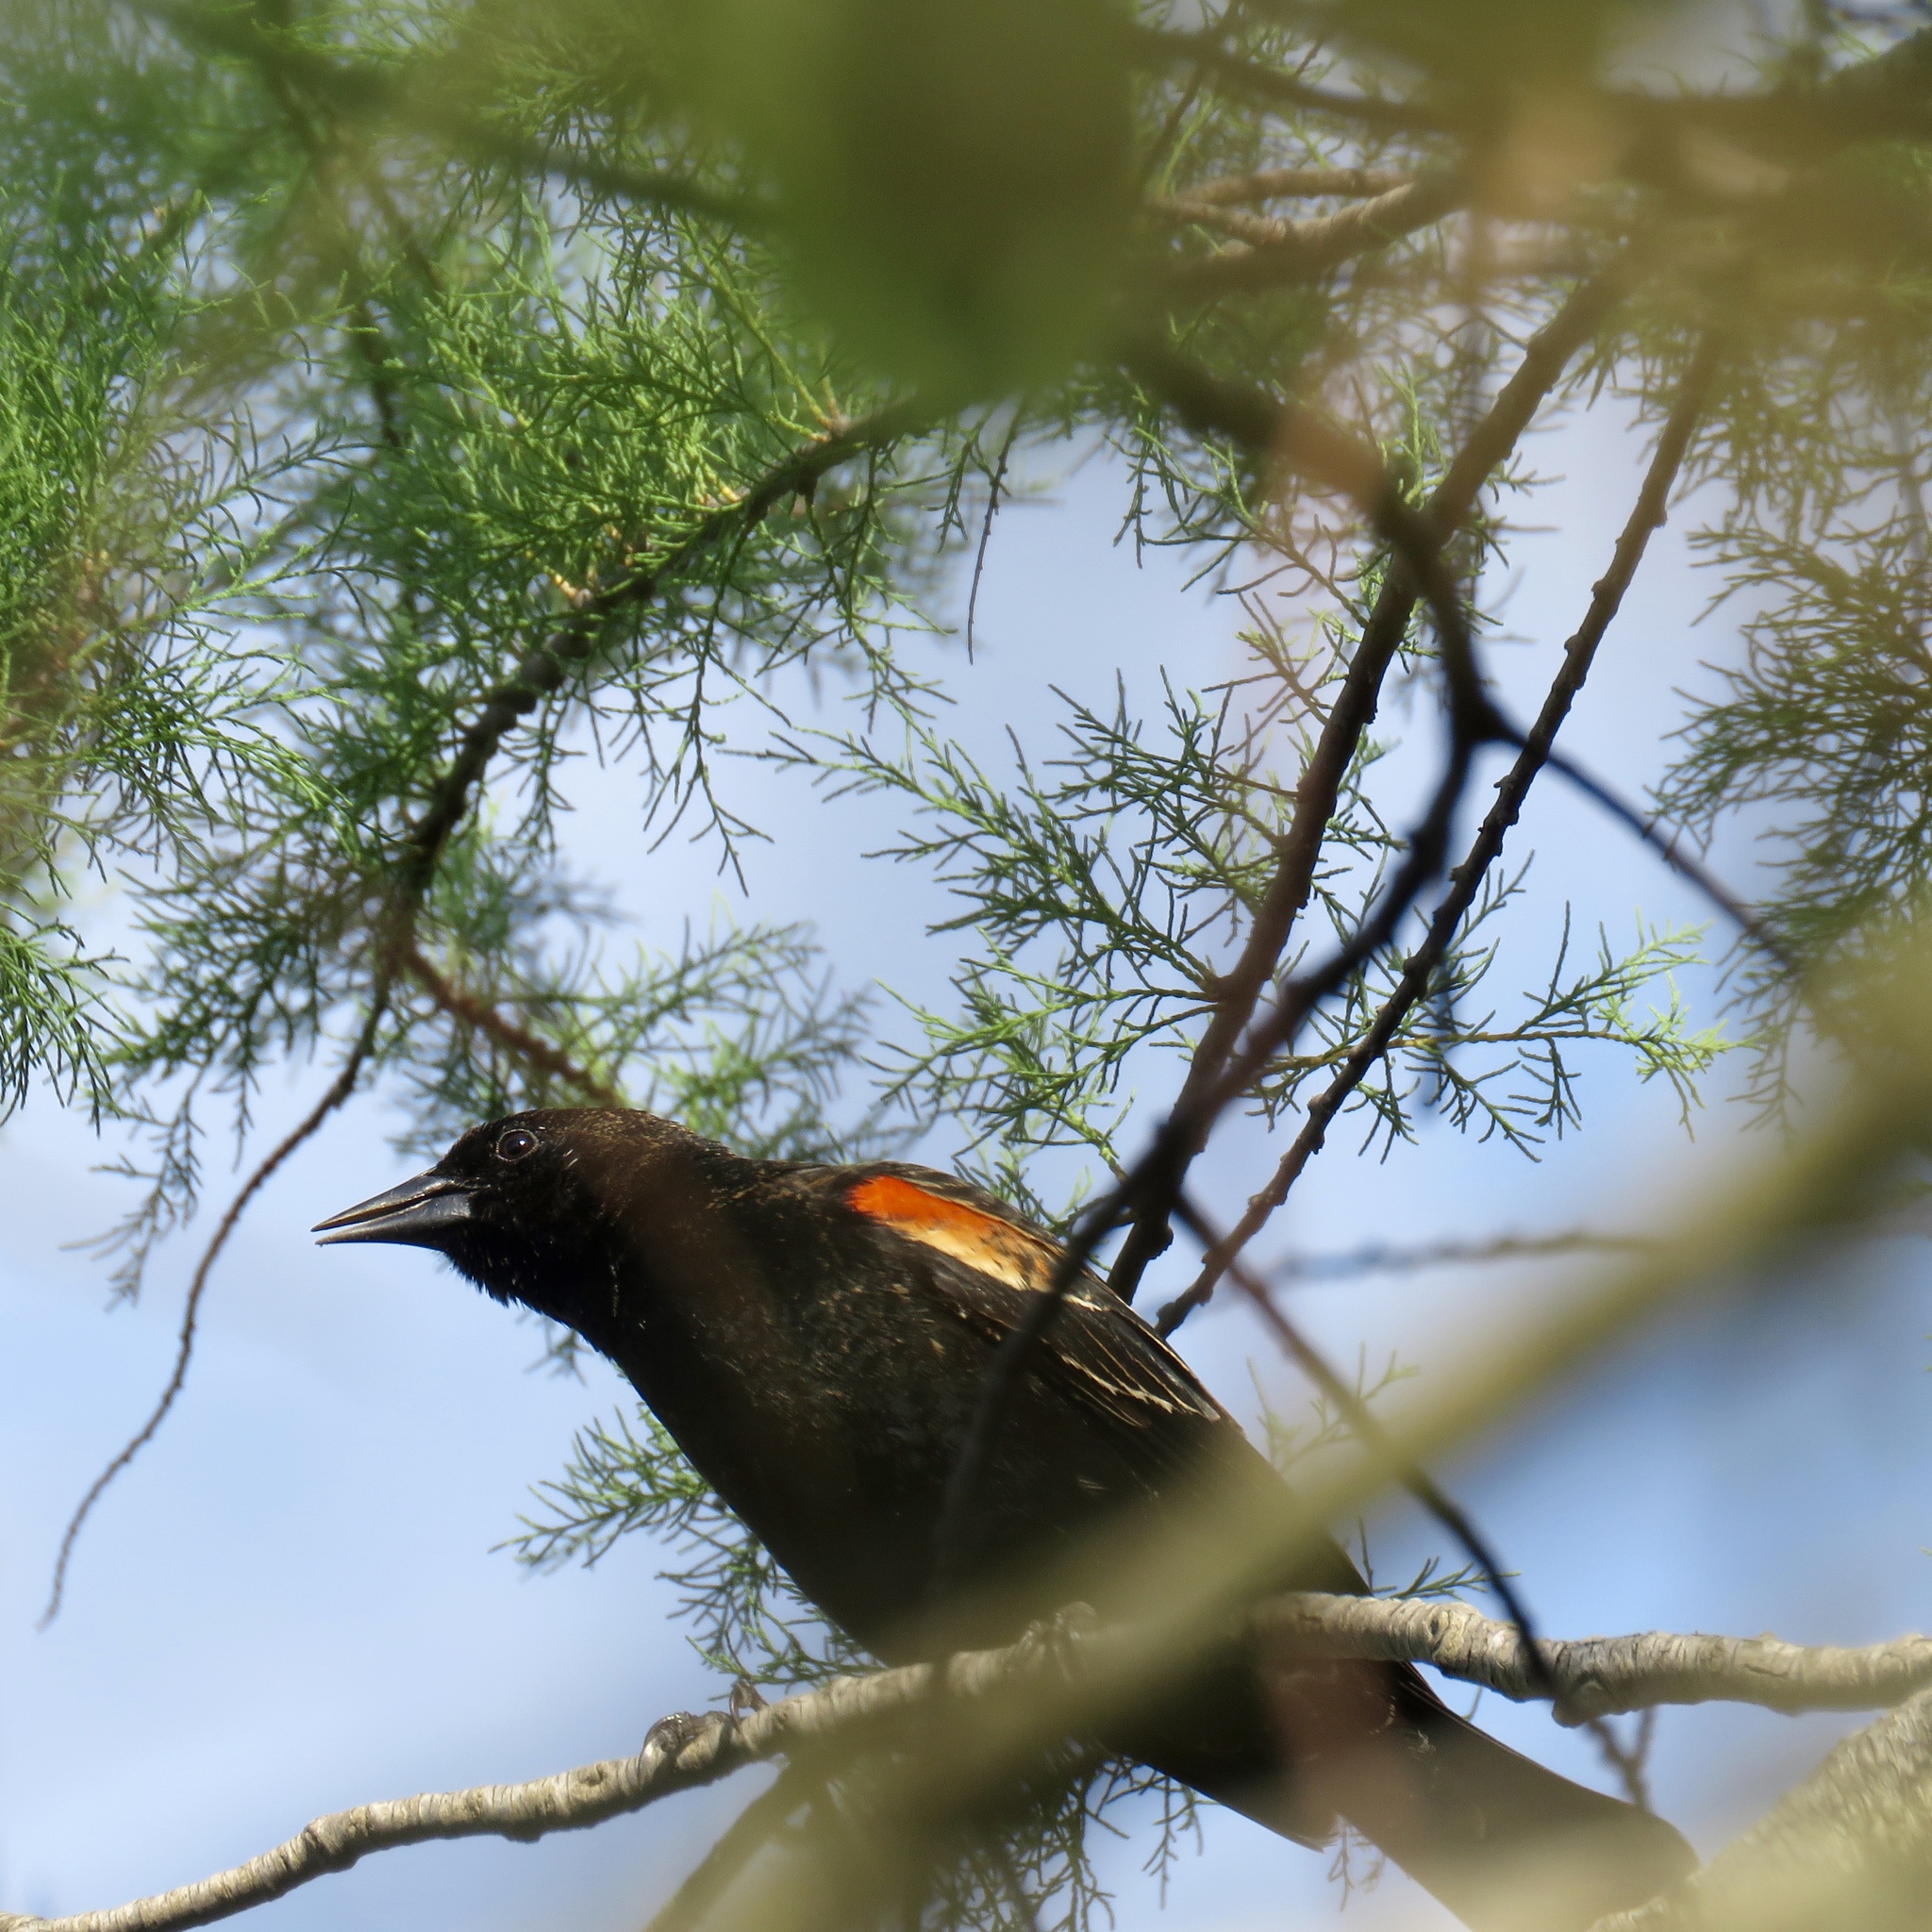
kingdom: Animalia
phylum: Chordata
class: Aves
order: Passeriformes
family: Icteridae
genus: Agelaius
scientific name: Agelaius phoeniceus
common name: Red-winged blackbird
